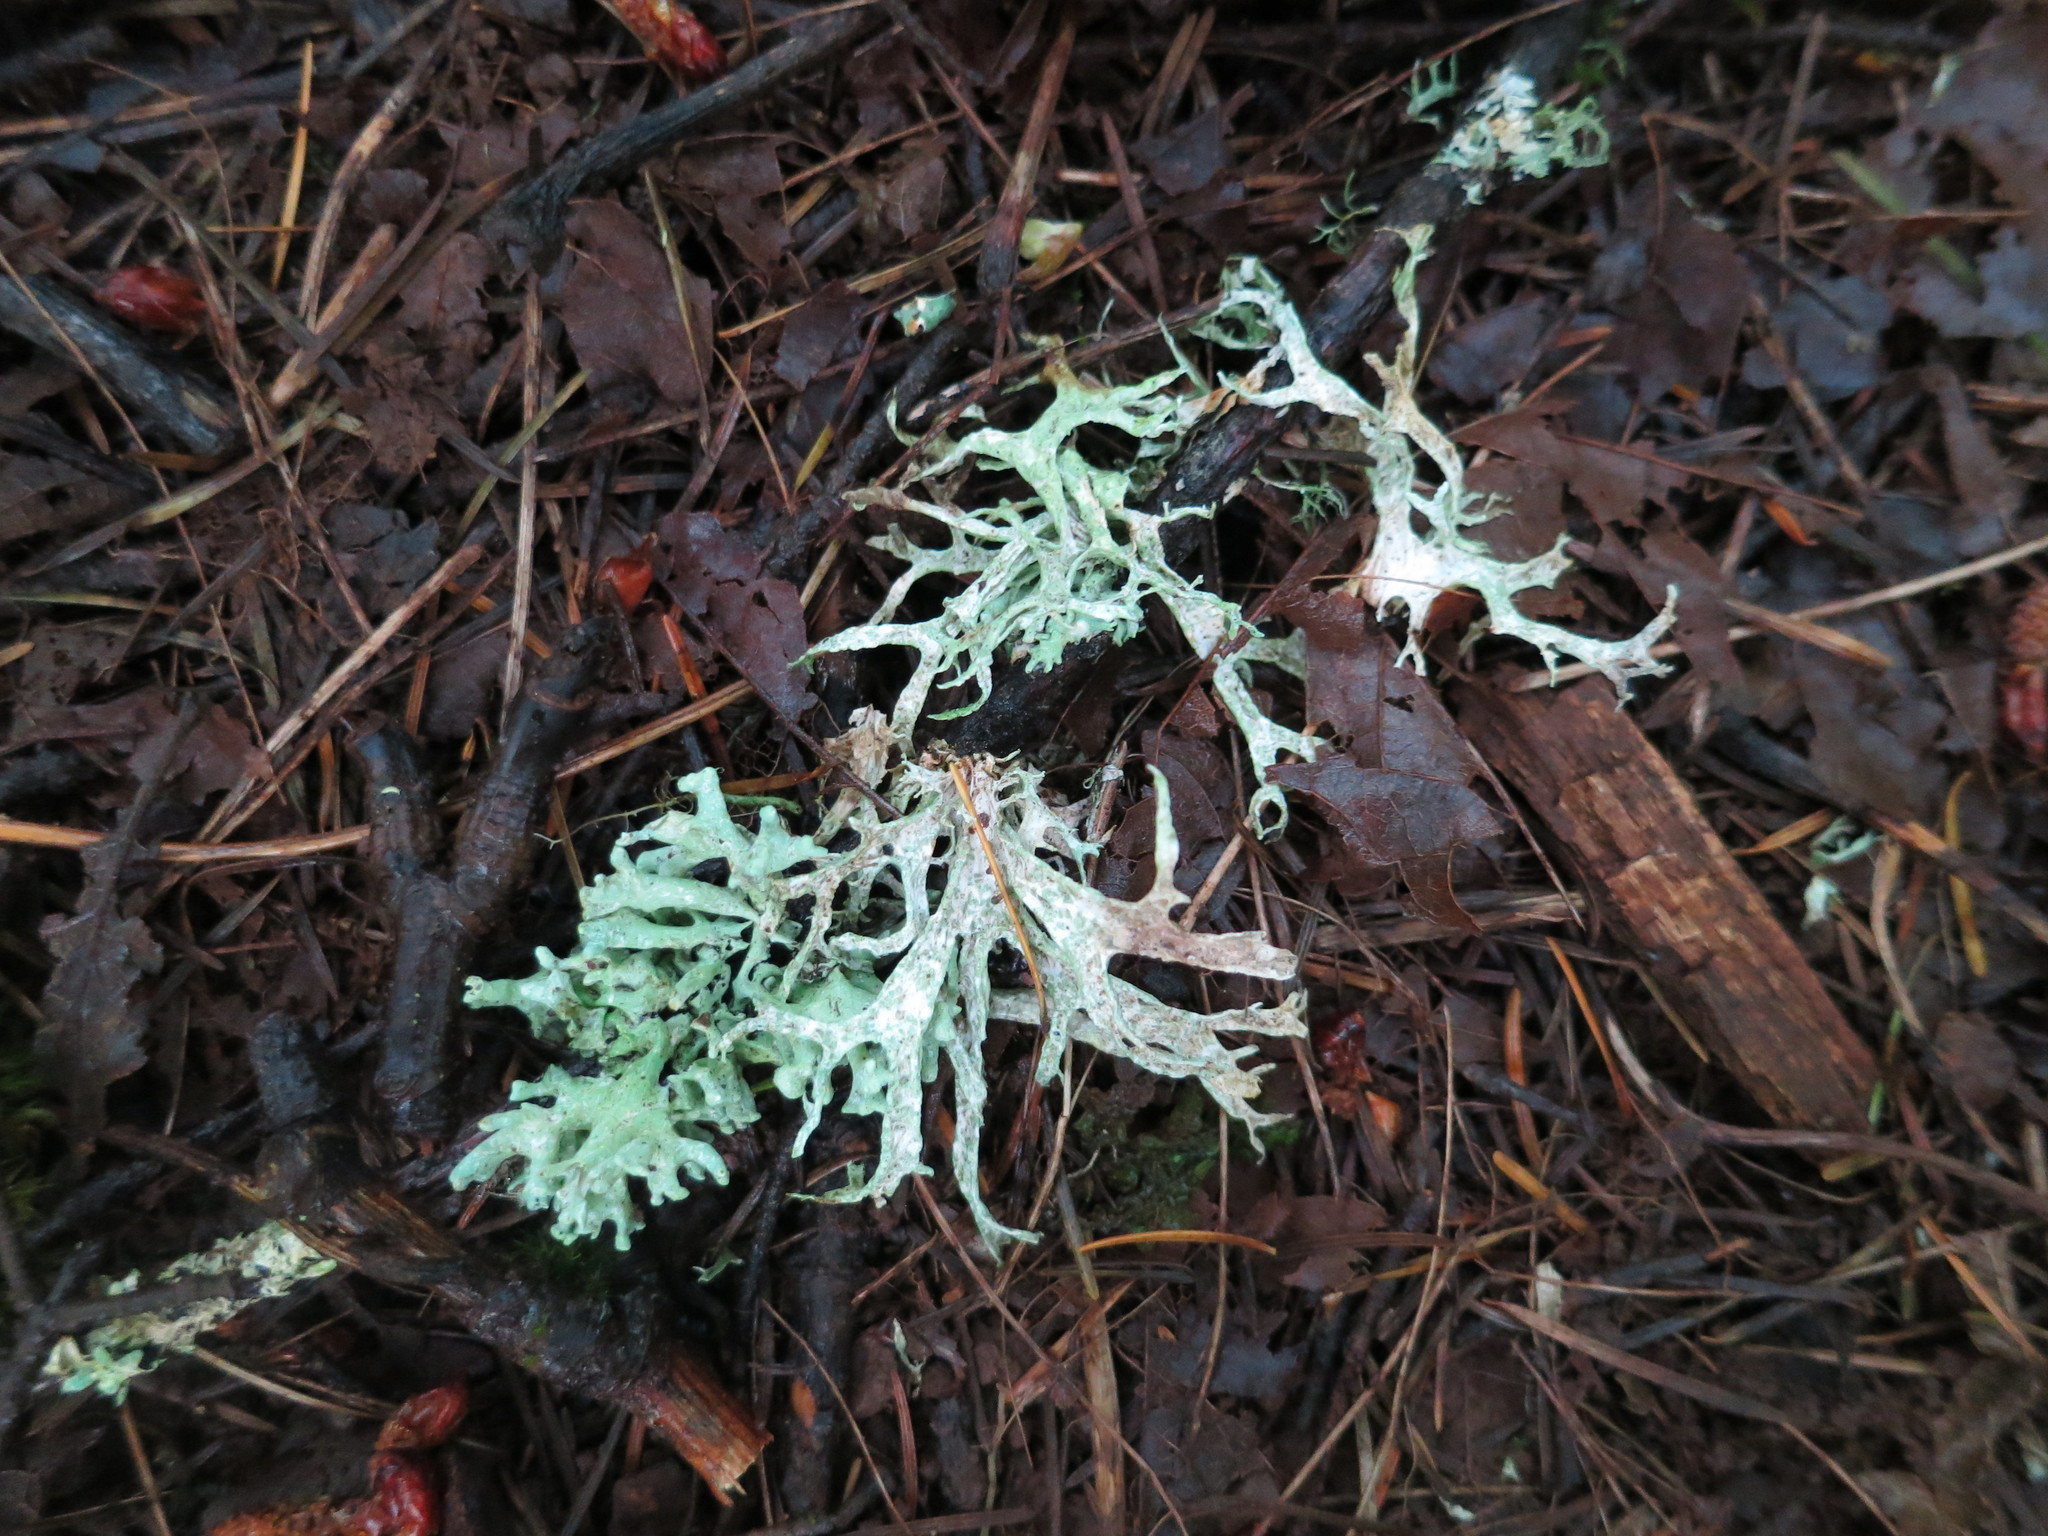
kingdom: Fungi
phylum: Ascomycota
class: Lecanoromycetes
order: Lecanorales
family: Parmeliaceae
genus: Evernia
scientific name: Evernia prunastri
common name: Oak moss
